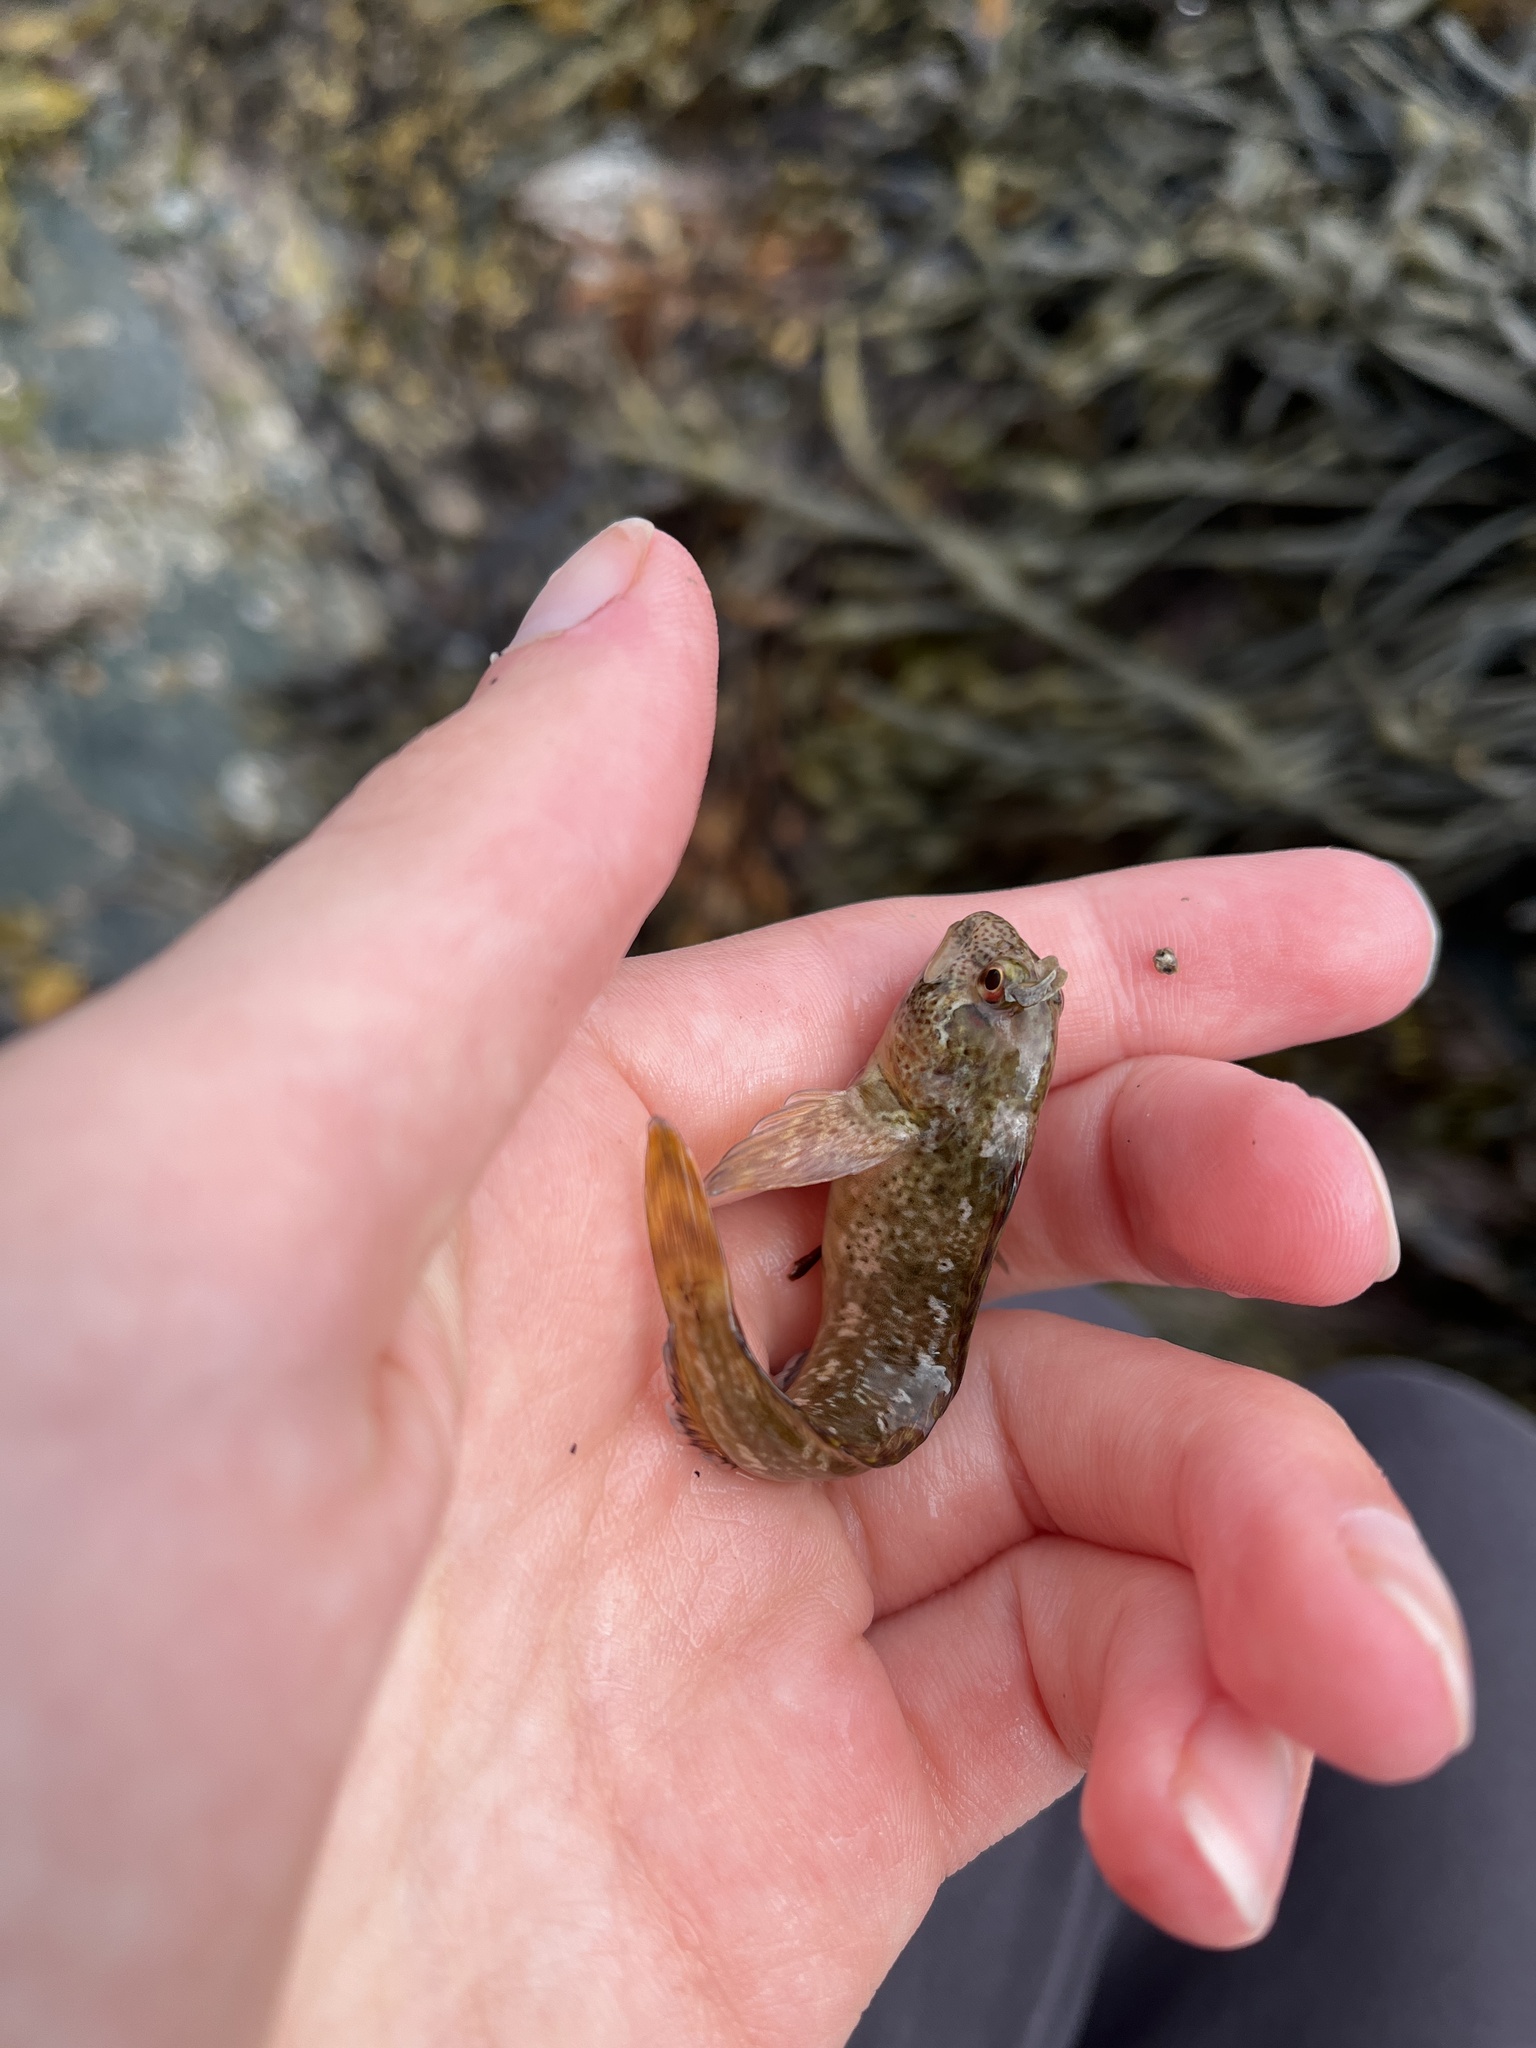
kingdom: Animalia
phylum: Chordata
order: Perciformes
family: Blenniidae
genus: Lipophrys
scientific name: Lipophrys pholis
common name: Shanny
